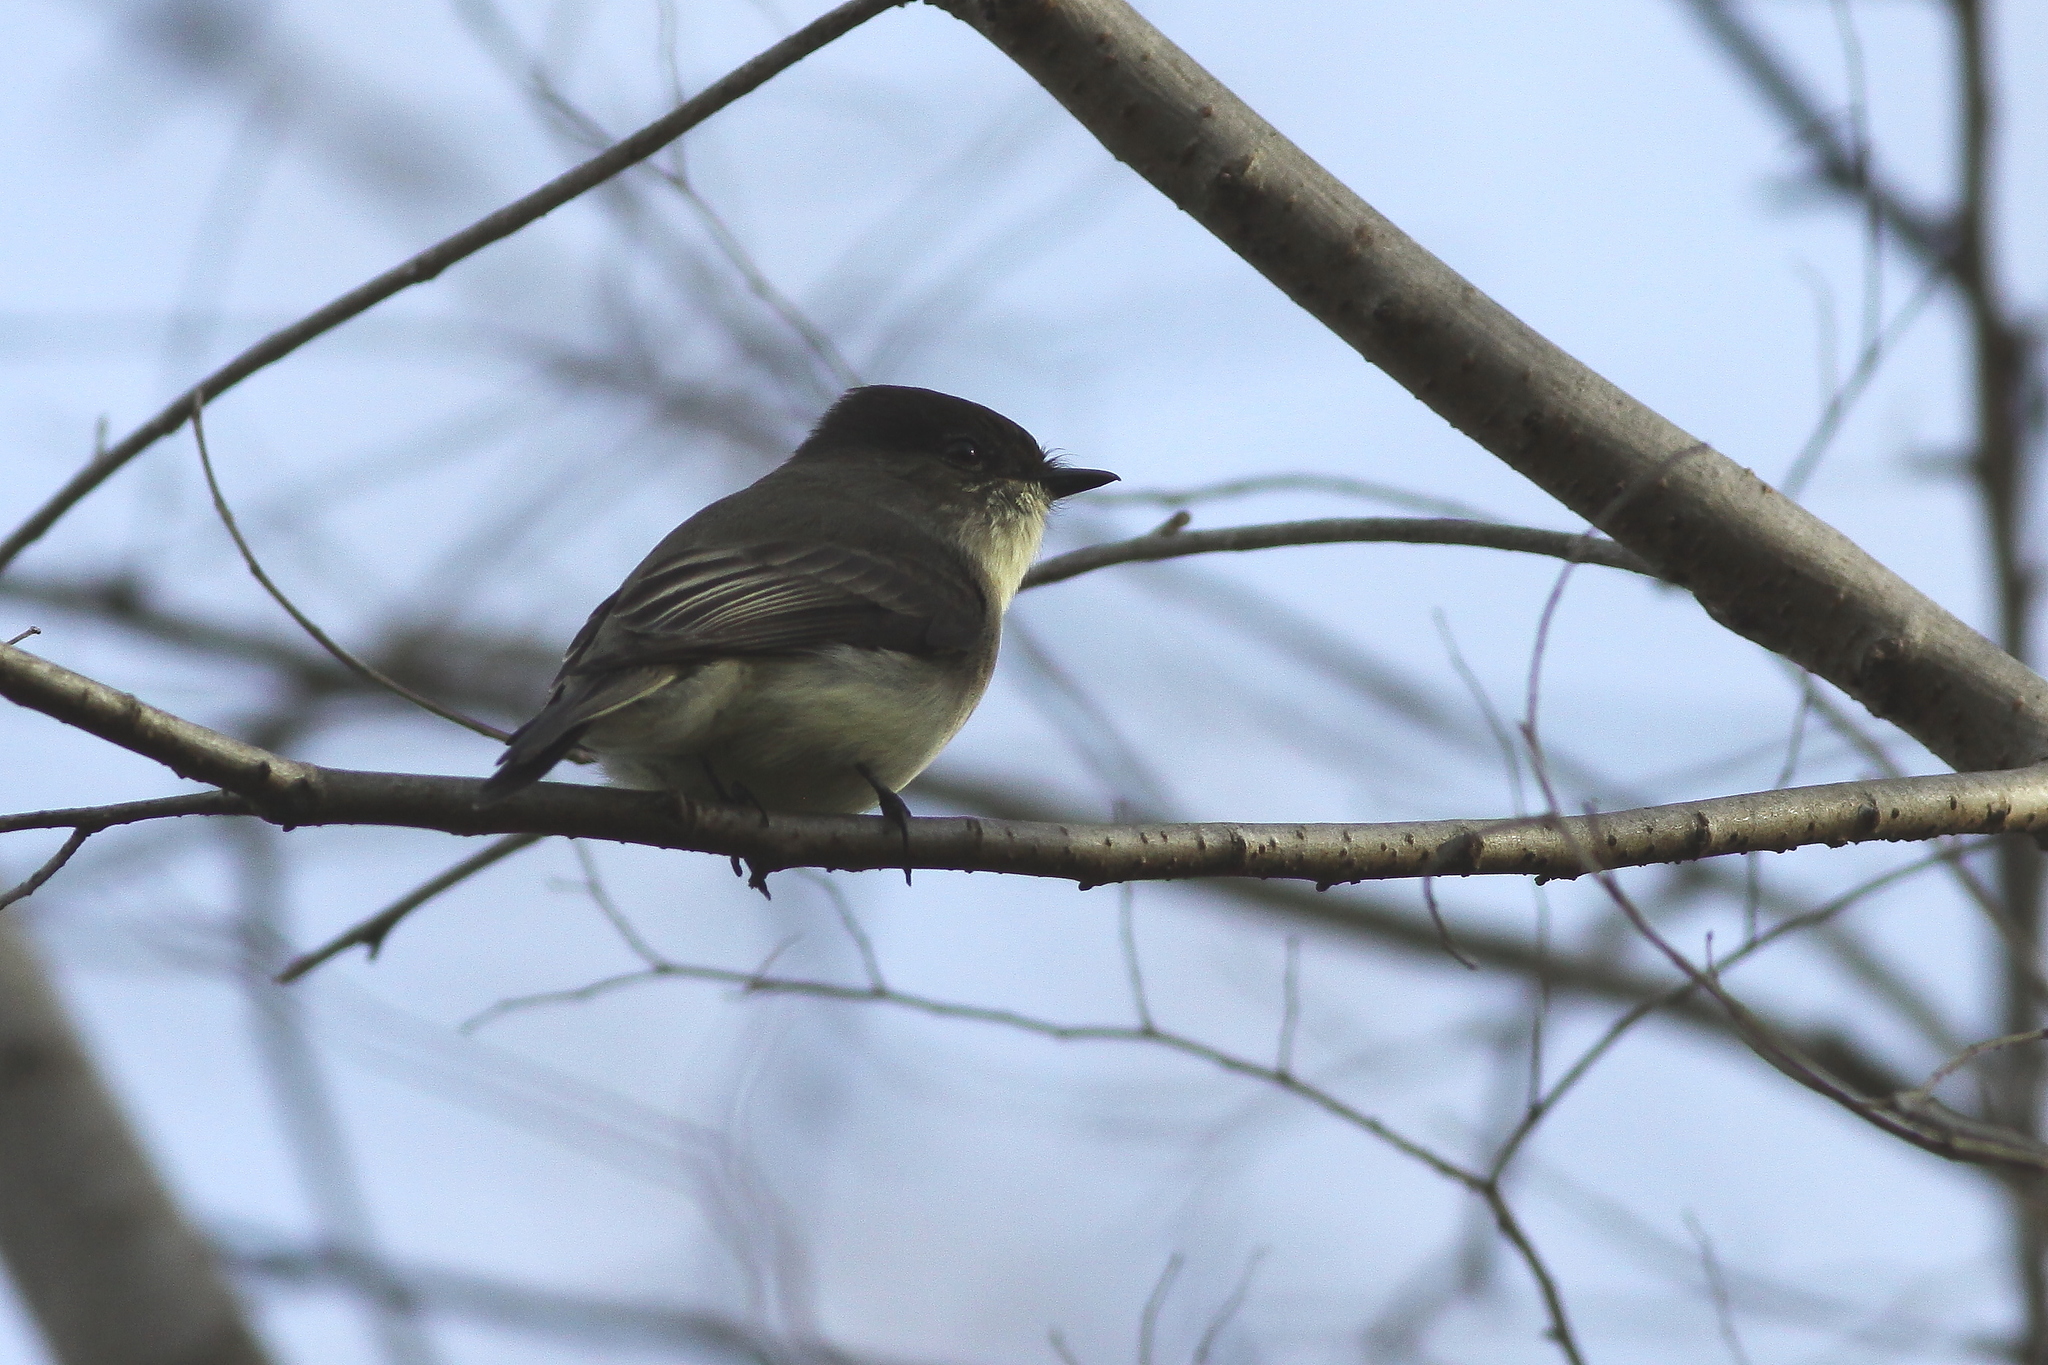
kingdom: Animalia
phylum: Chordata
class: Aves
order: Passeriformes
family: Tyrannidae
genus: Sayornis
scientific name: Sayornis phoebe
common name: Eastern phoebe
